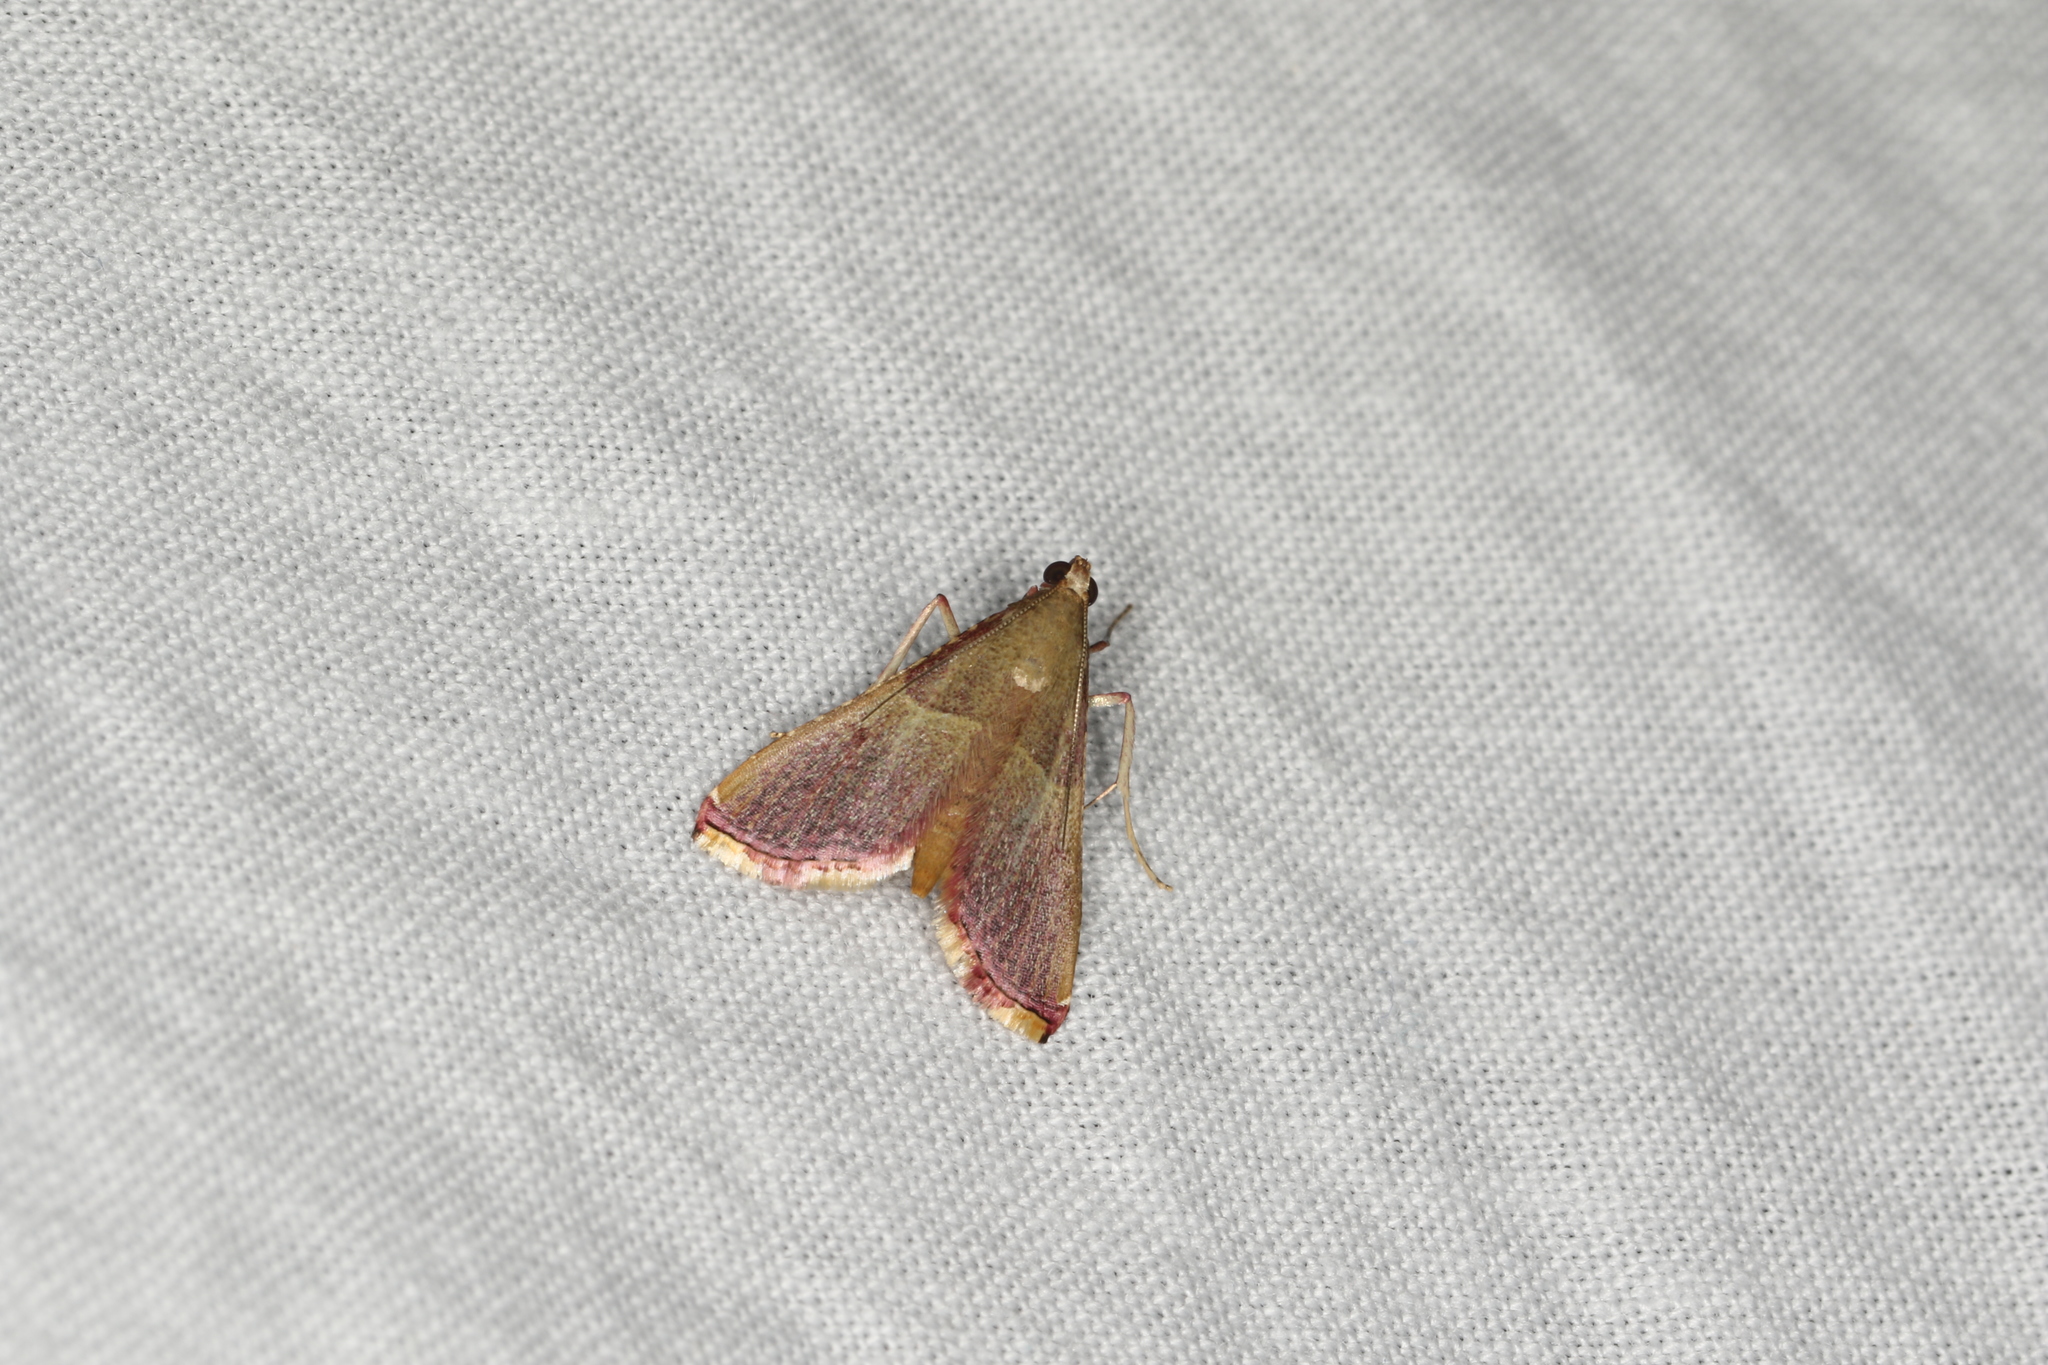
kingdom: Animalia
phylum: Arthropoda
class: Insecta
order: Lepidoptera
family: Pyralidae
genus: Endotricha
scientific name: Endotricha mesenterialis
